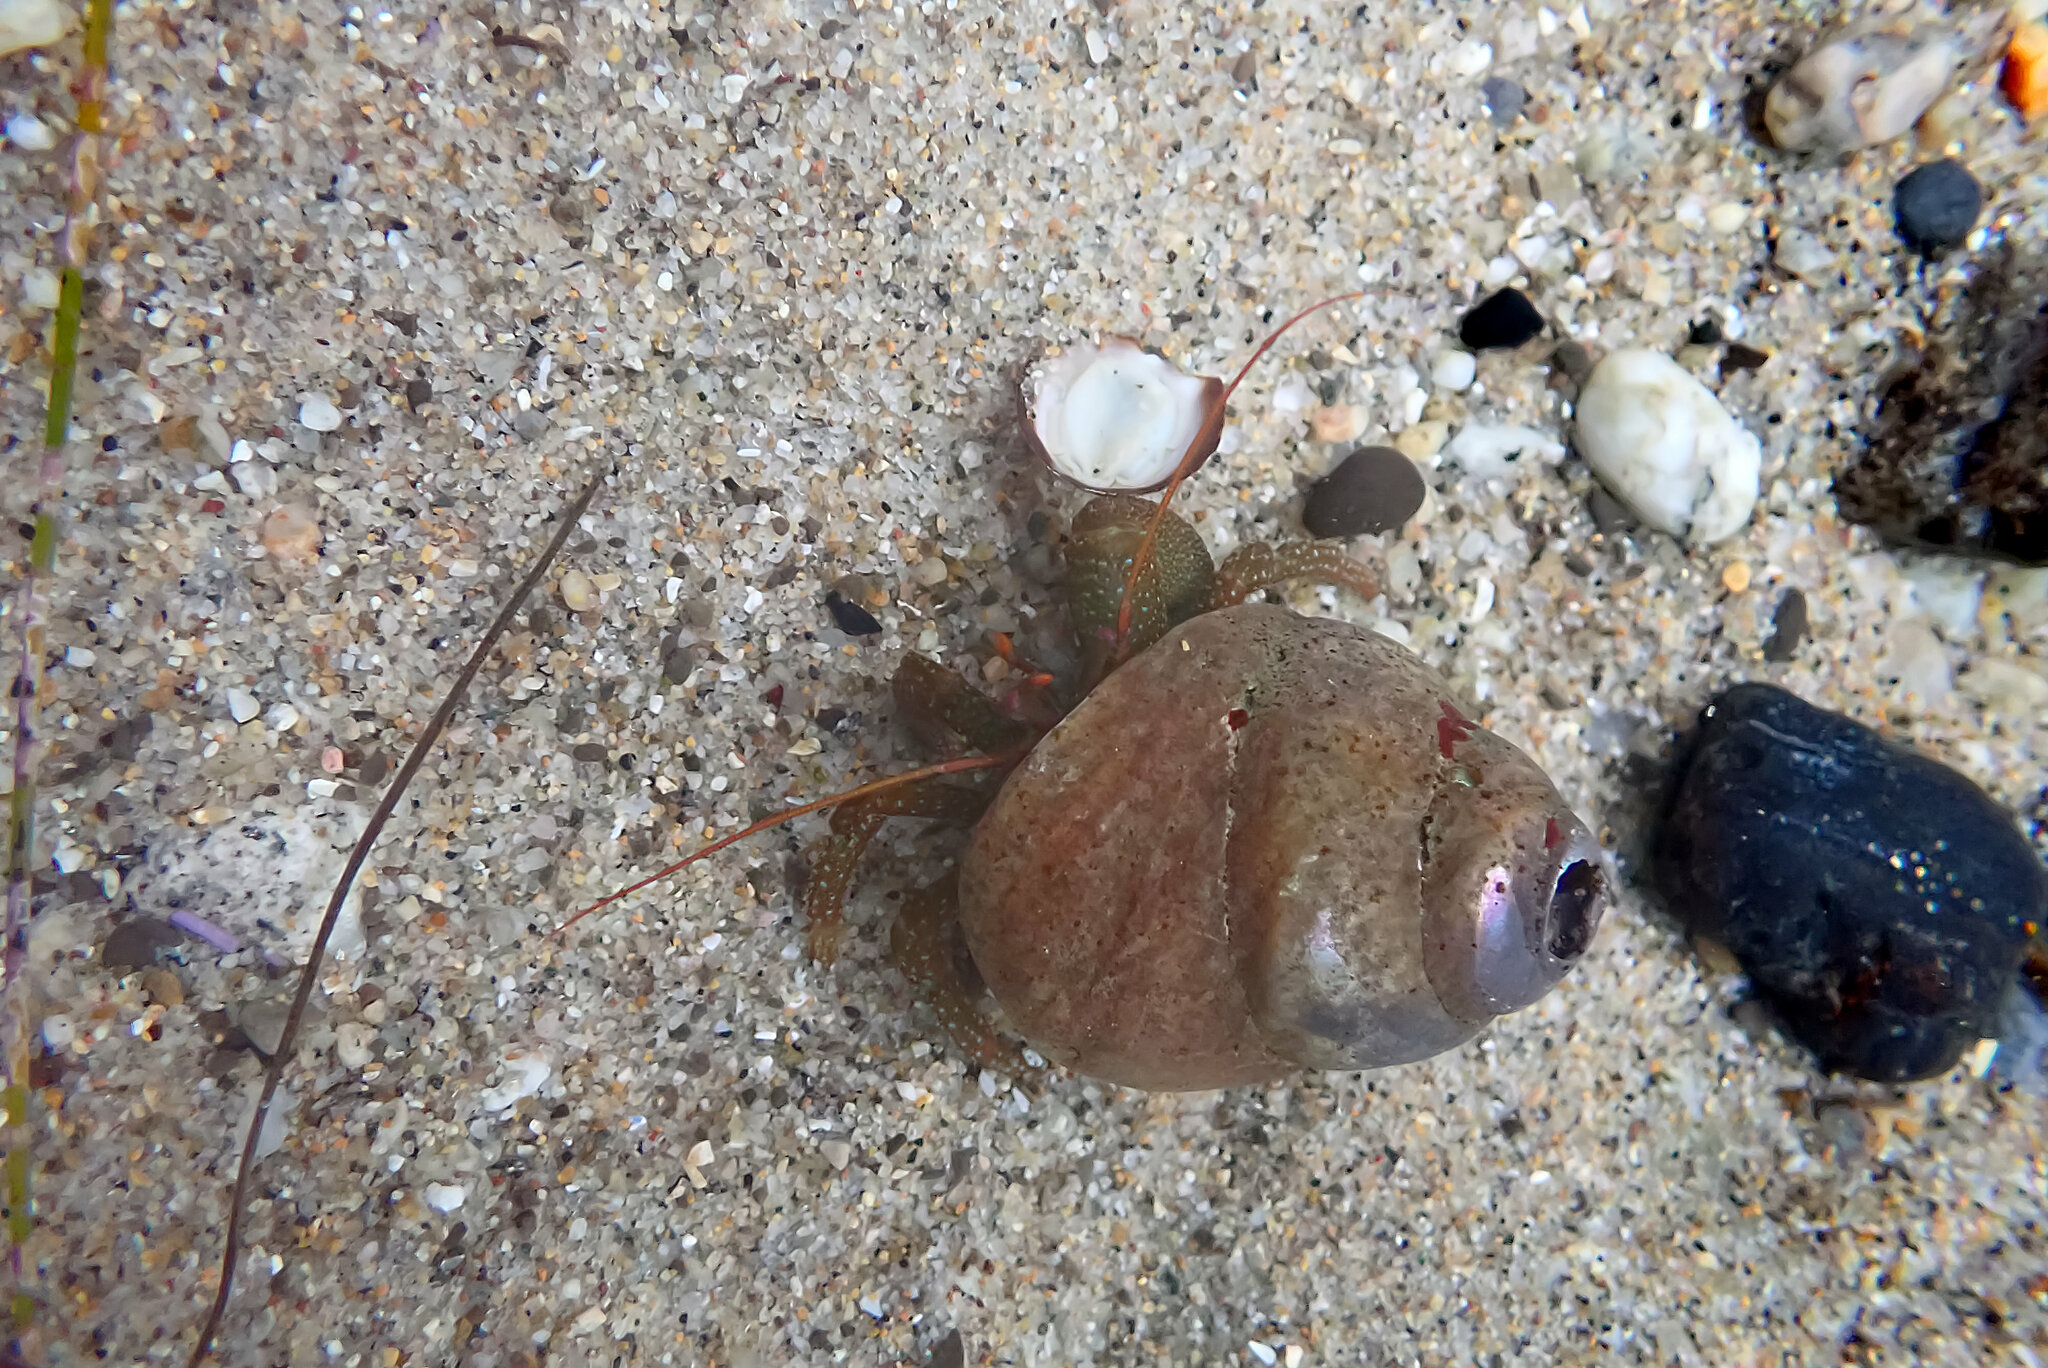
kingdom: Animalia
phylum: Arthropoda
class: Malacostraca
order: Decapoda
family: Paguridae
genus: Pagurus
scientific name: Pagurus granosimanus
